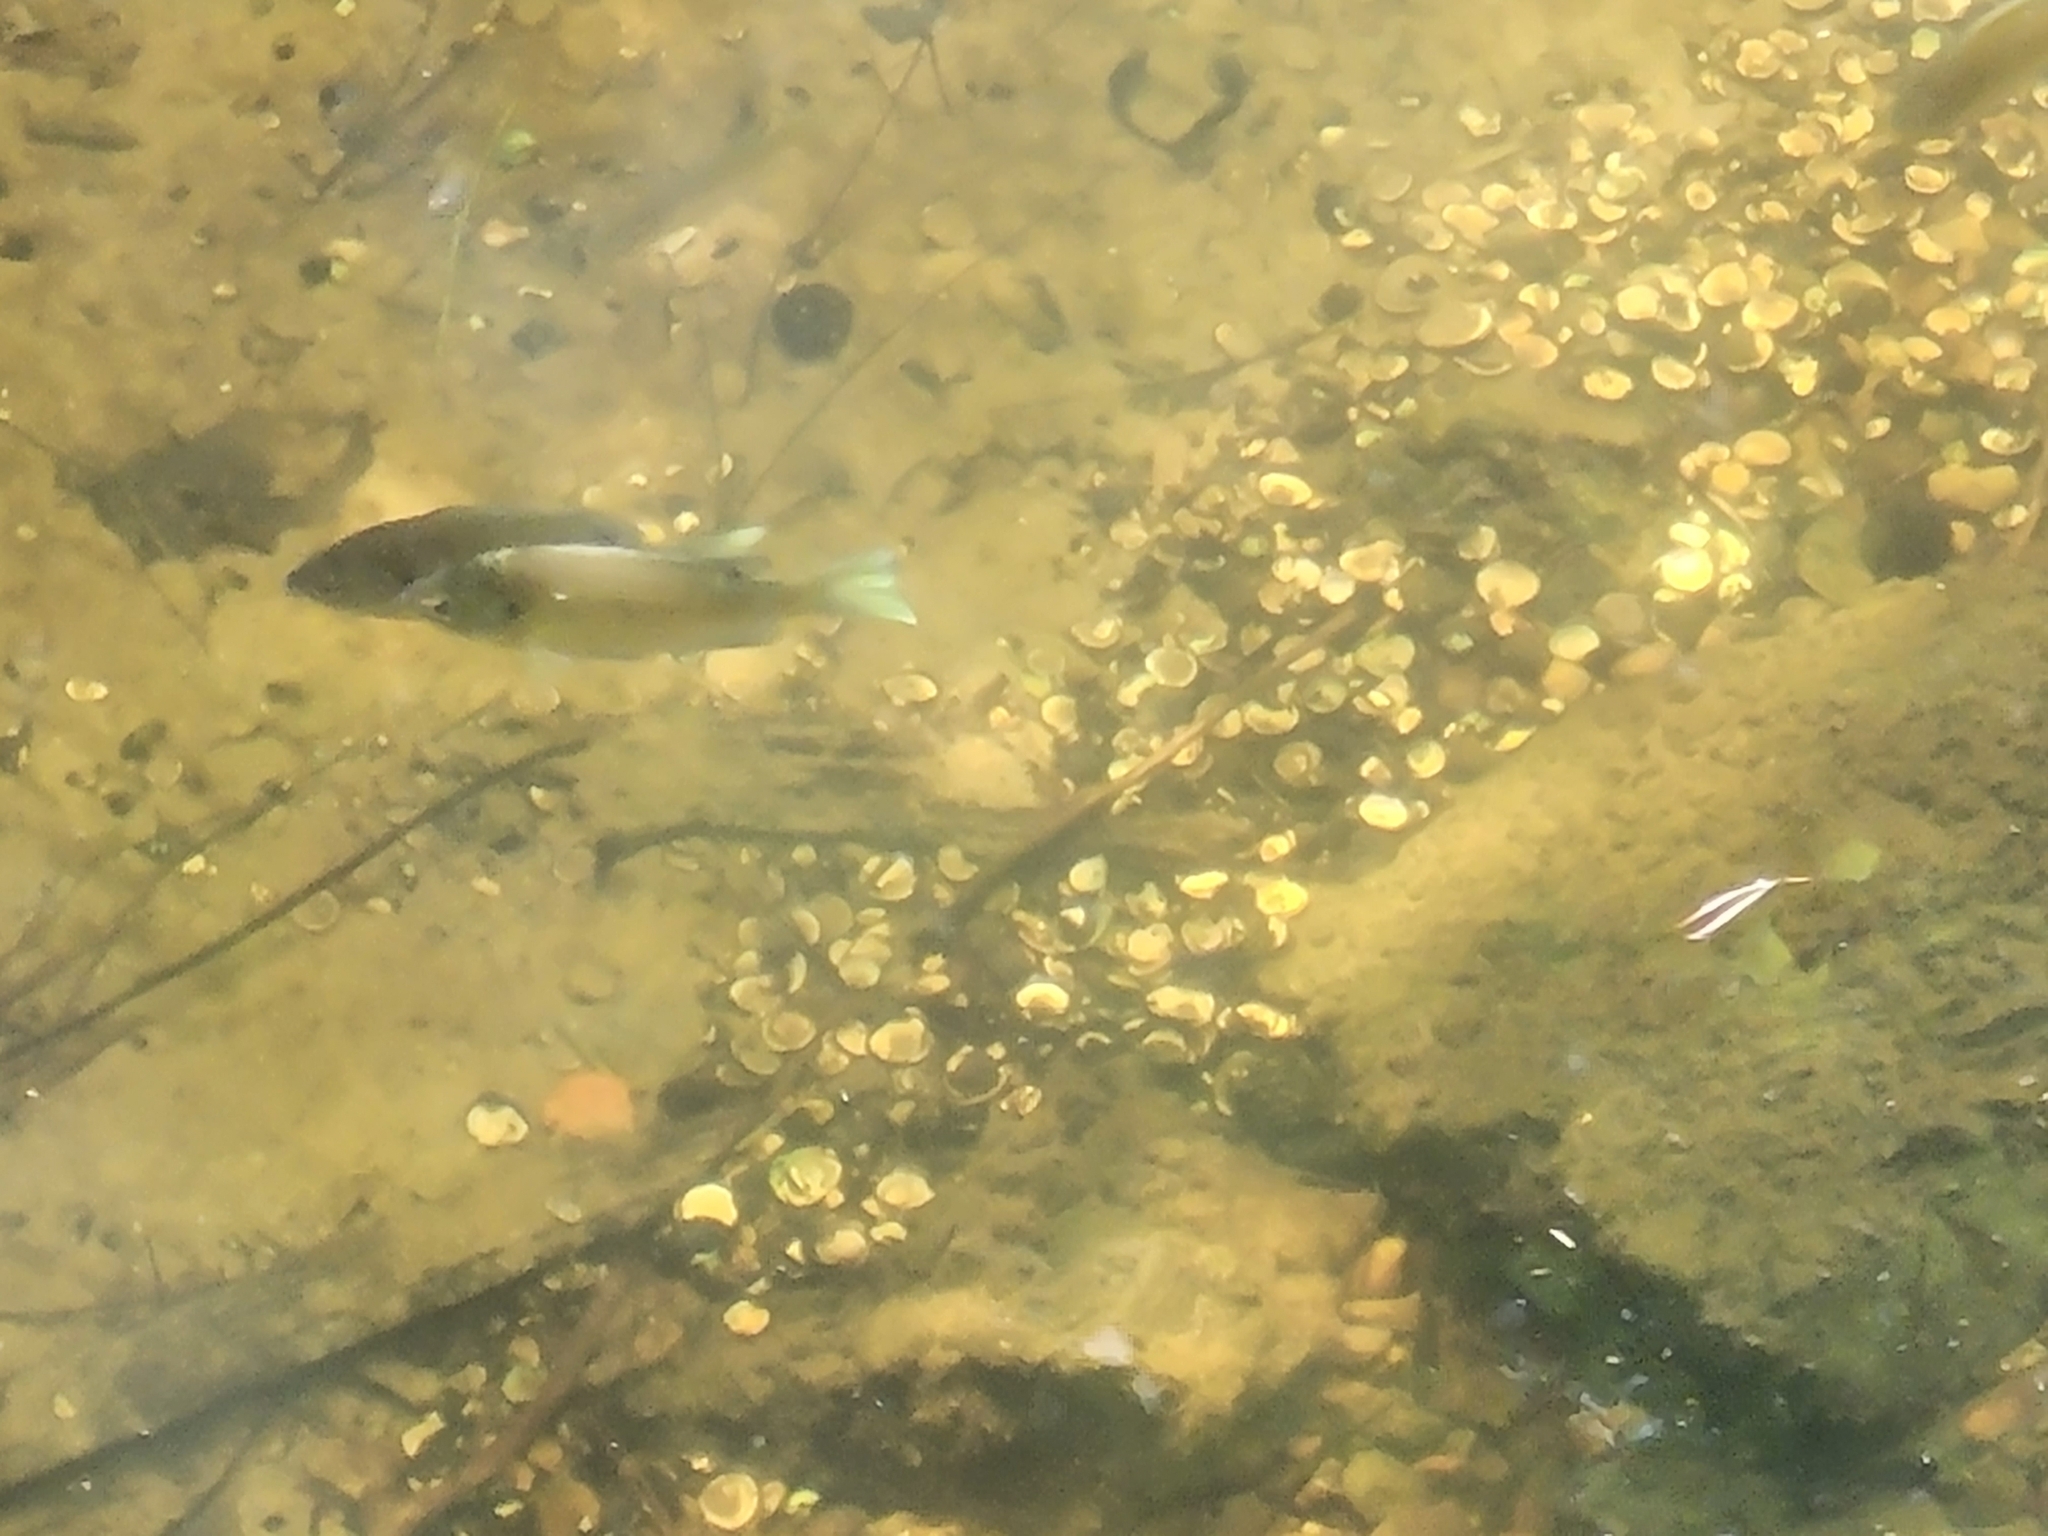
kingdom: Animalia
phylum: Chordata
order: Perciformes
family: Centrarchidae
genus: Lepomis
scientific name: Lepomis macrochirus
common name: Bluegill
